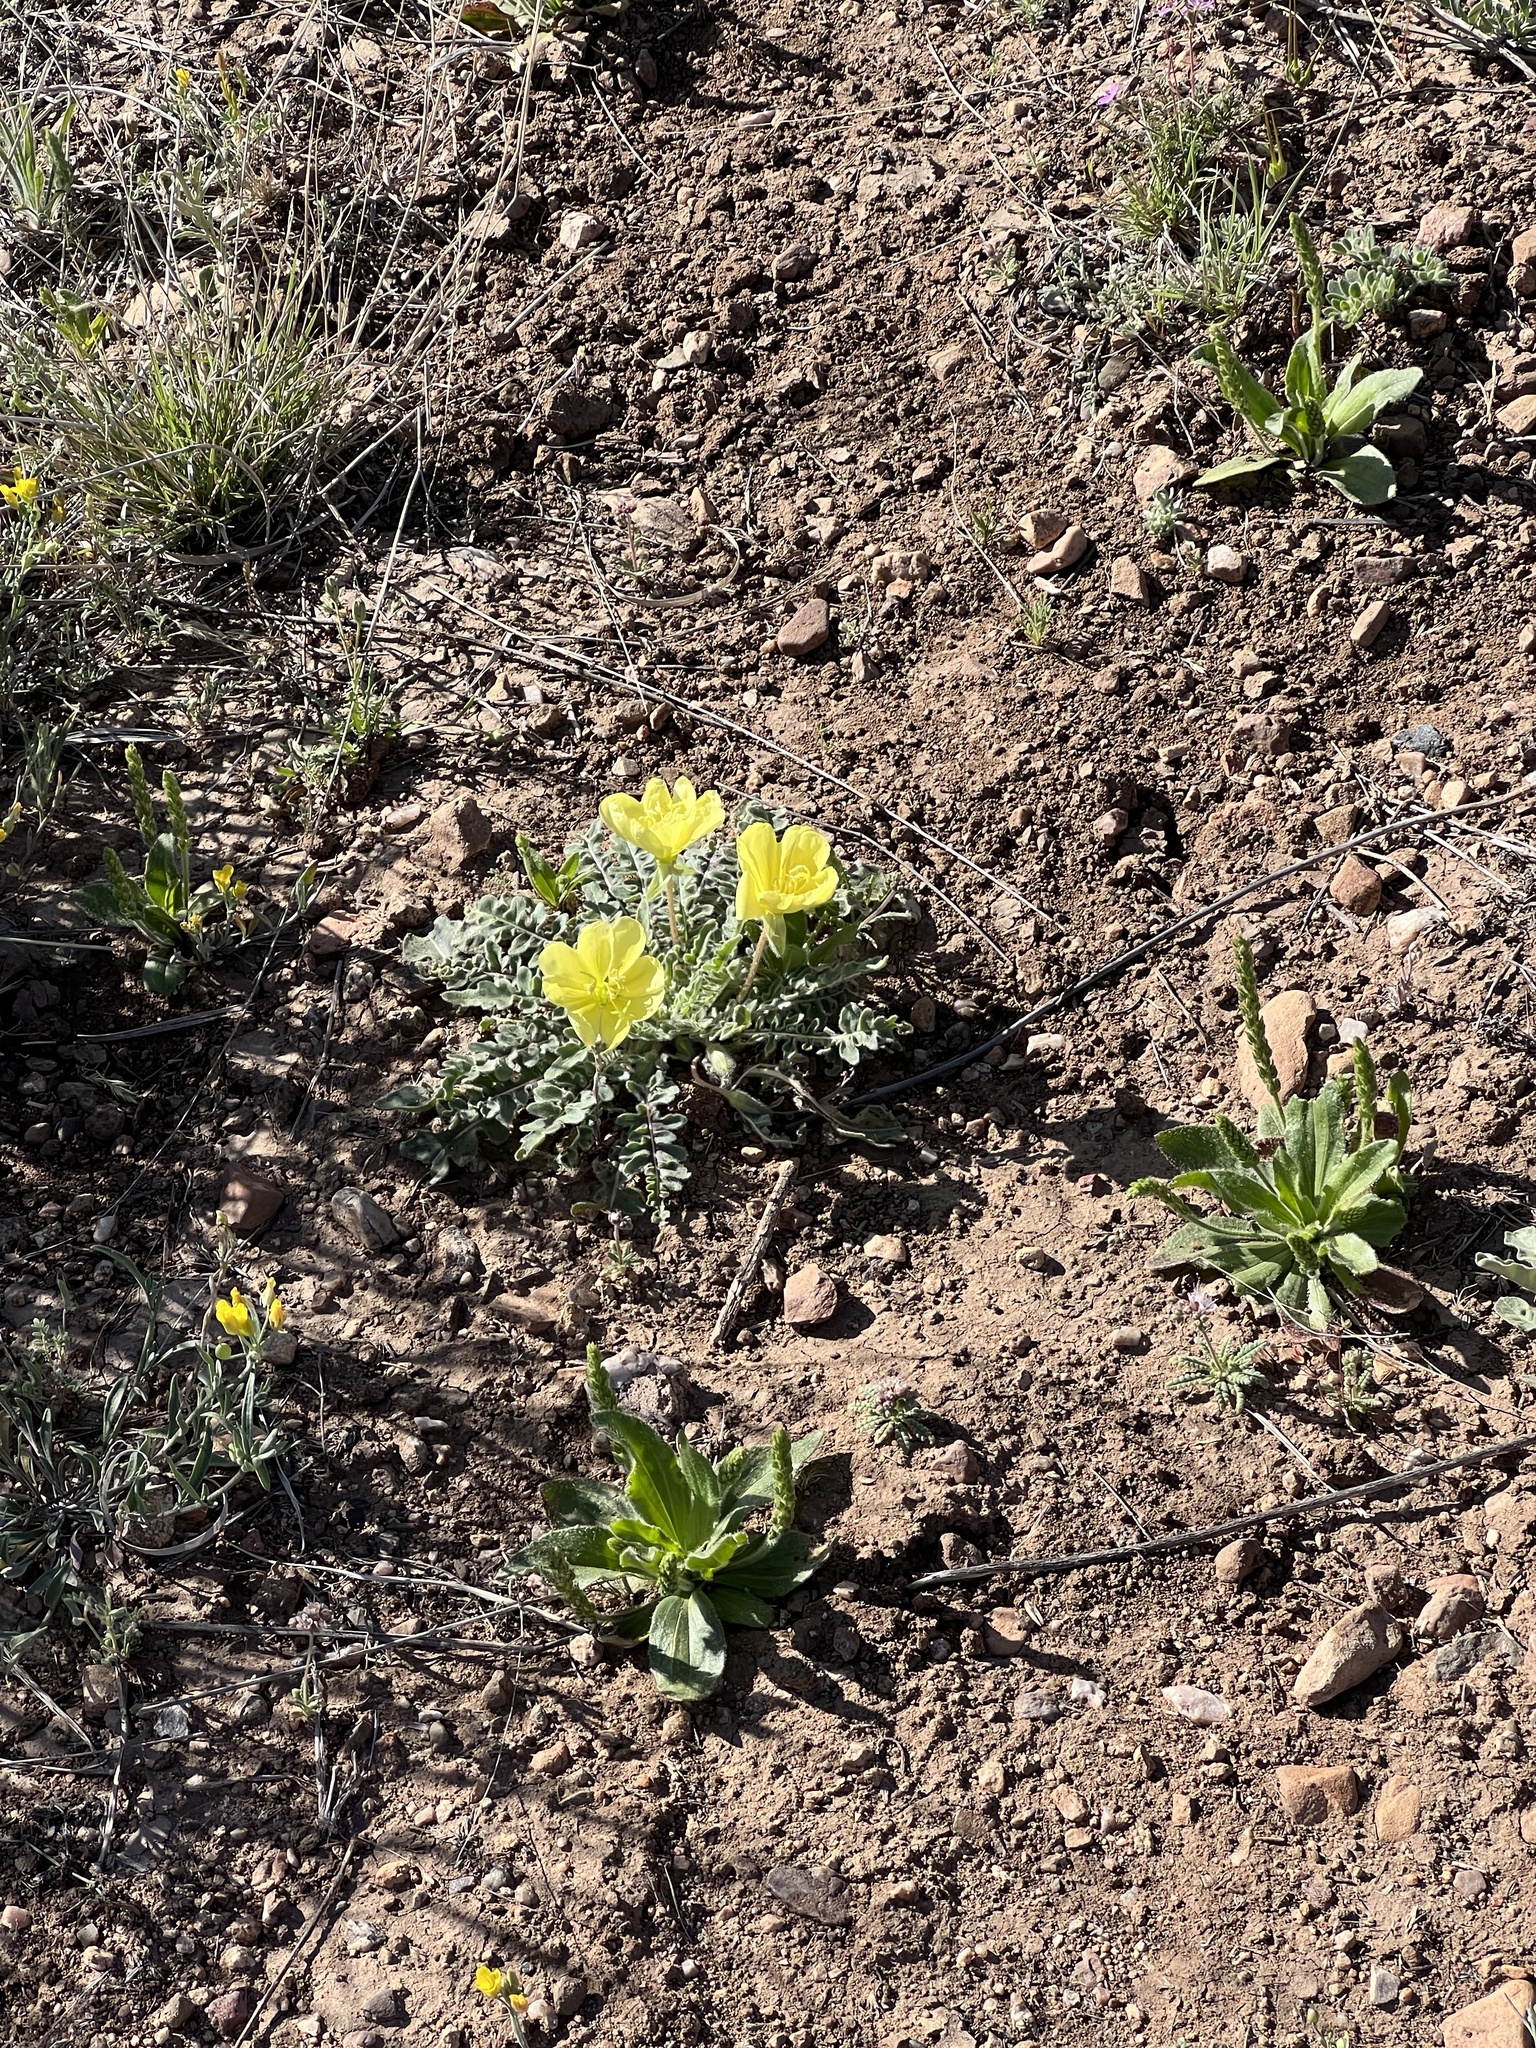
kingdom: Plantae
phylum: Tracheophyta
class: Magnoliopsida
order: Myrtales
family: Onagraceae
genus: Oenothera
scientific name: Oenothera primiveris
